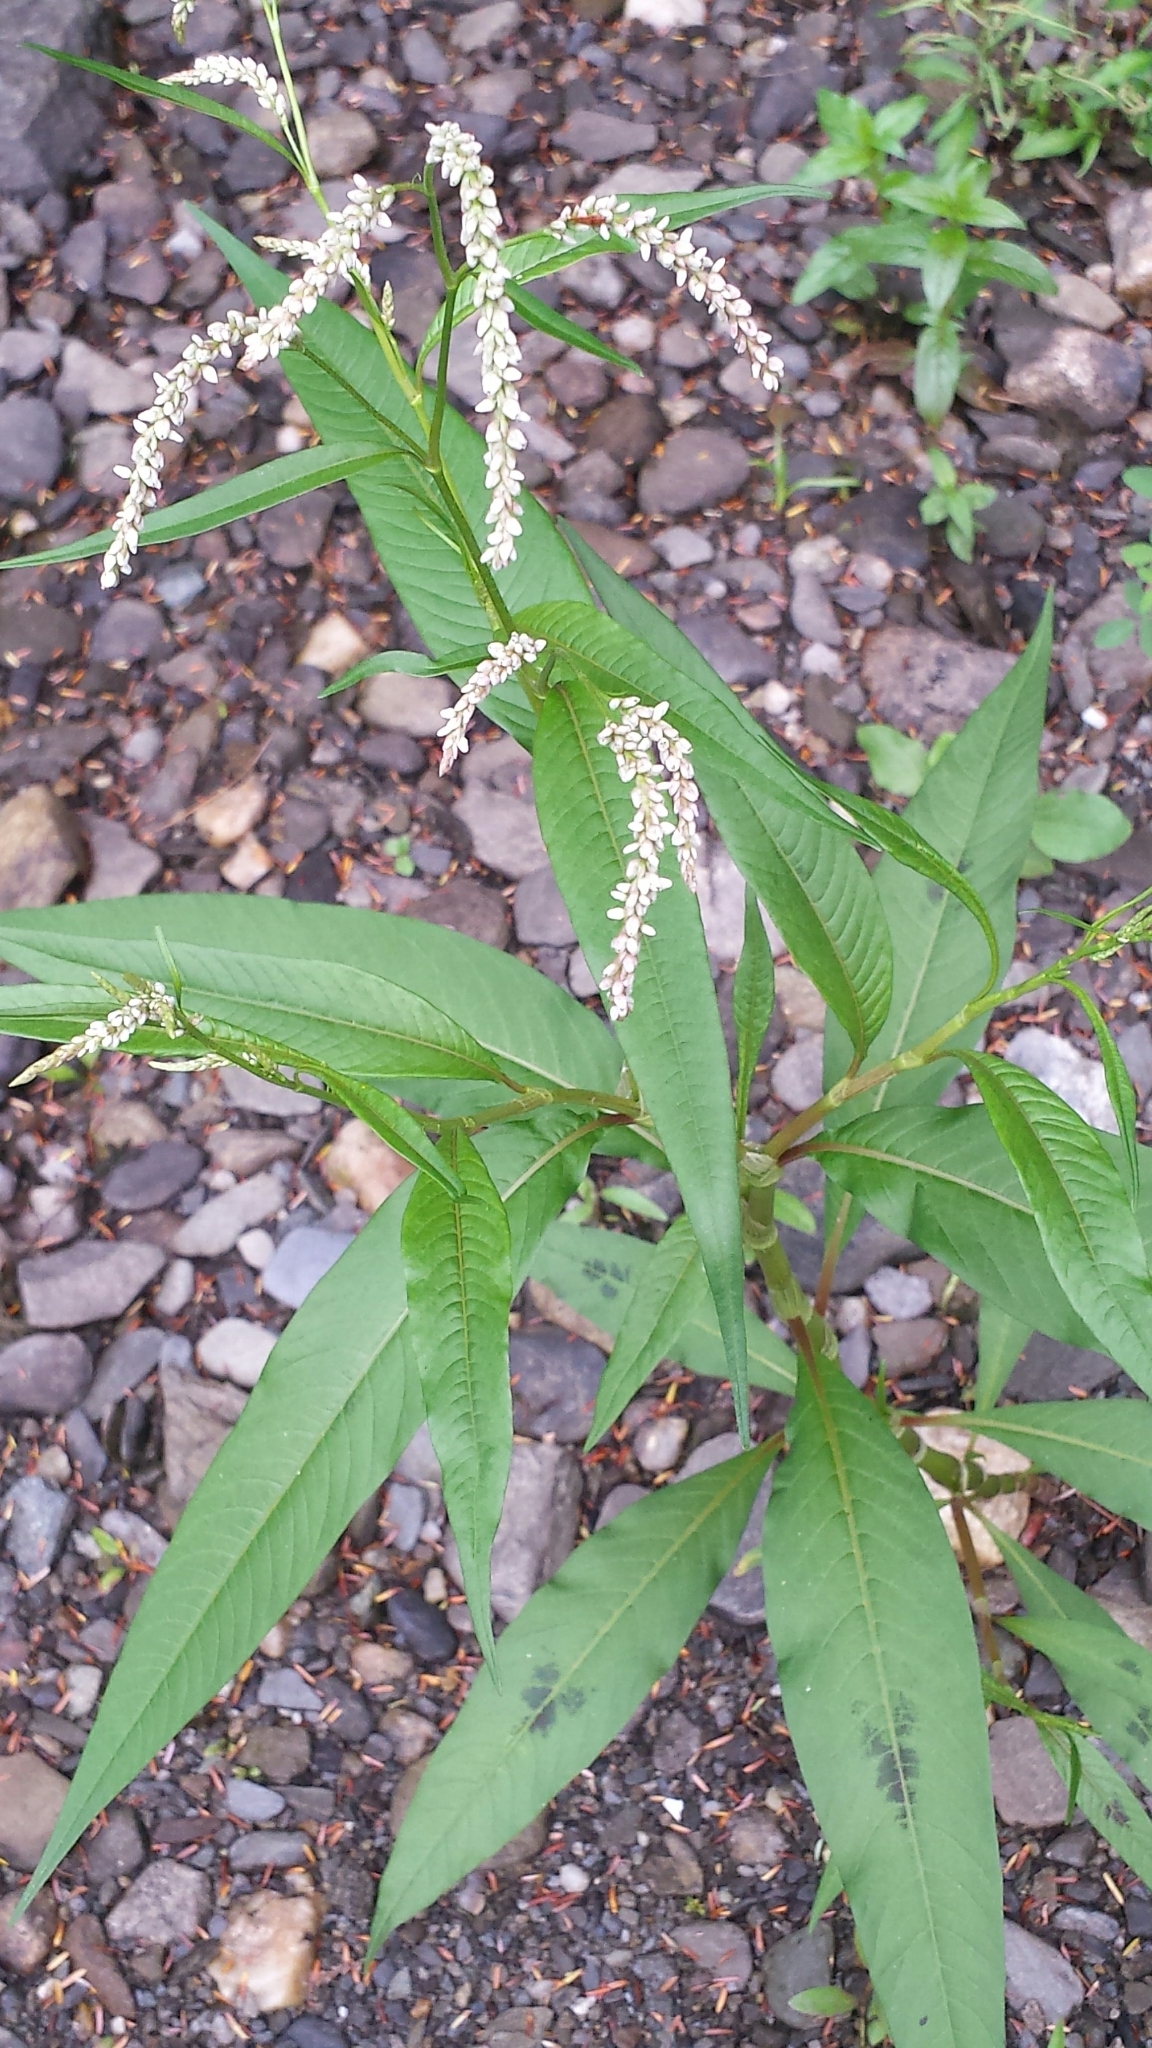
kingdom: Plantae
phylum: Tracheophyta
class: Magnoliopsida
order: Caryophyllales
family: Polygonaceae
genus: Persicaria
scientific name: Persicaria lapathifolia
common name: Curlytop knotweed
